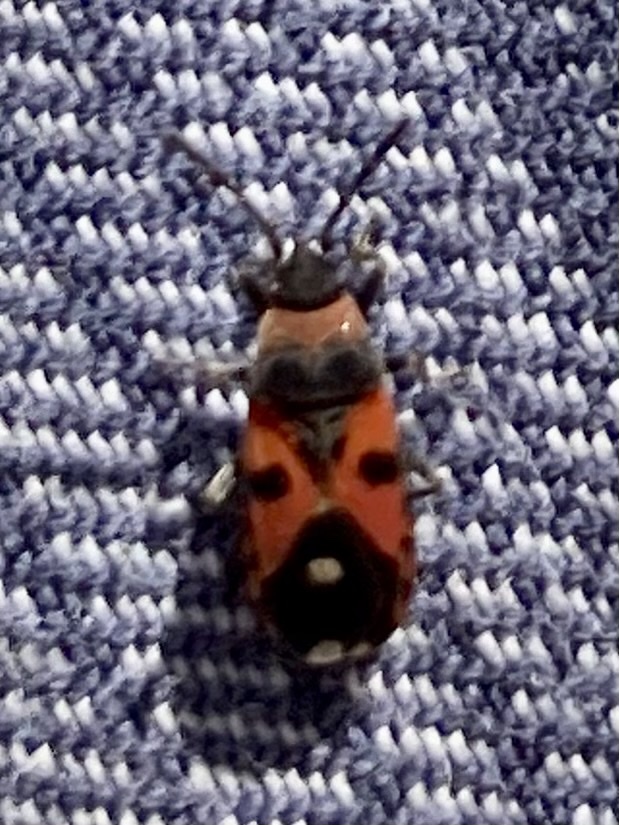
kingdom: Animalia
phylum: Arthropoda
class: Insecta
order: Hemiptera
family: Lygaeidae
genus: Horvathiolus
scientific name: Horvathiolus
